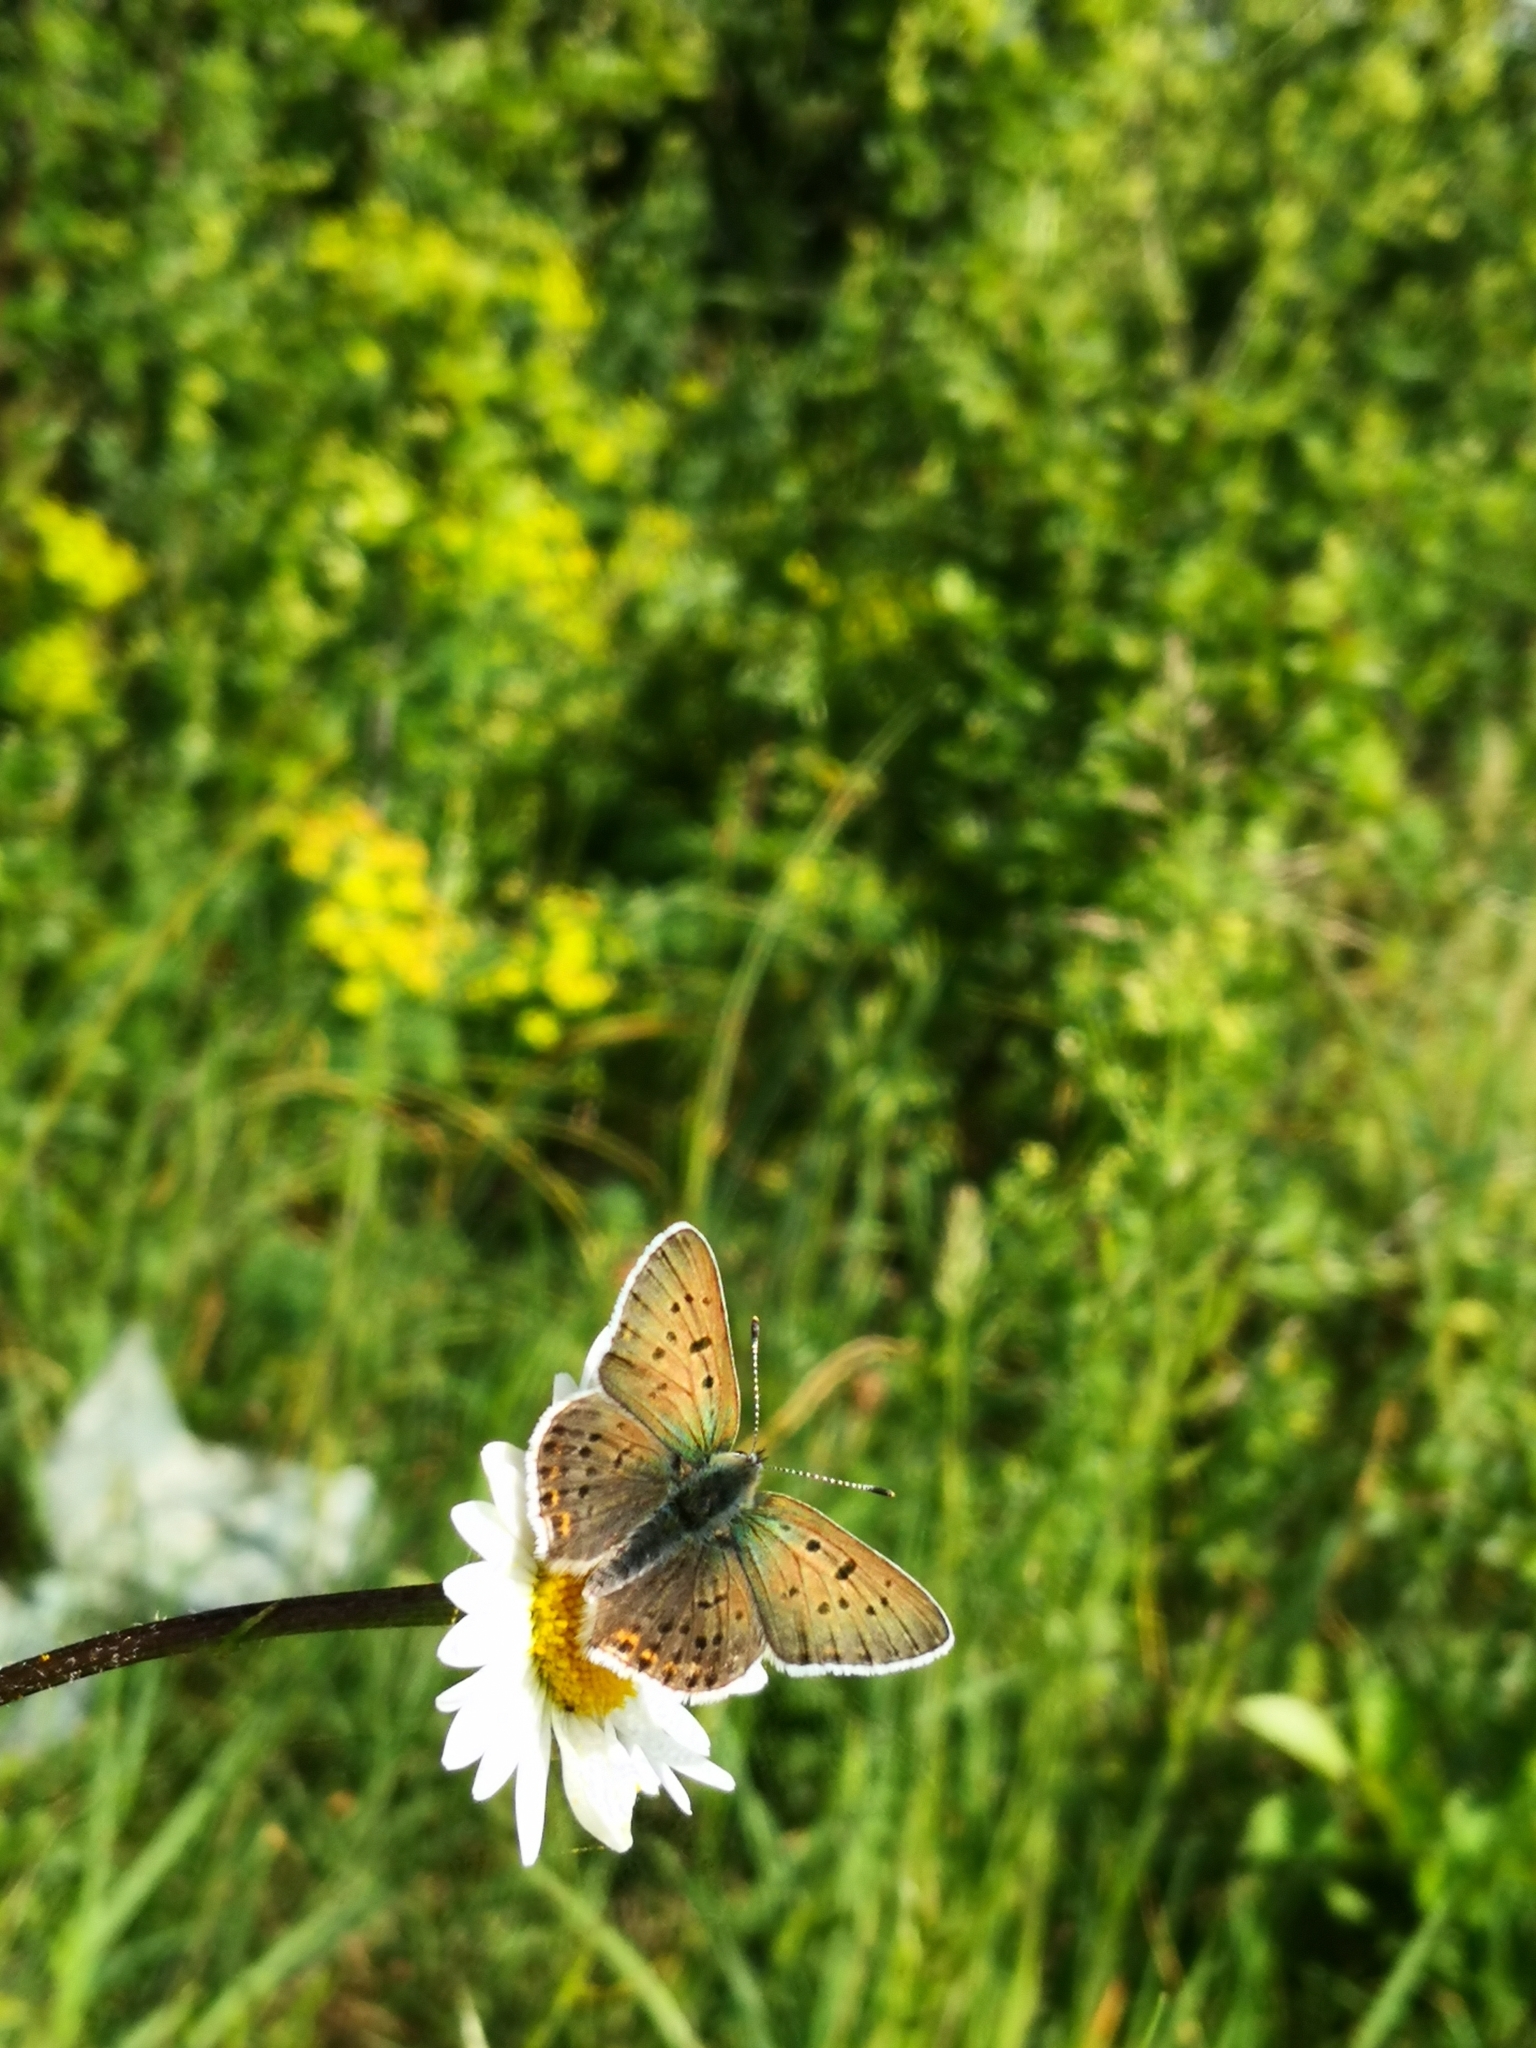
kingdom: Animalia
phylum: Arthropoda
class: Insecta
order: Lepidoptera
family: Lycaenidae
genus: Loweia
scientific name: Loweia tityrus
